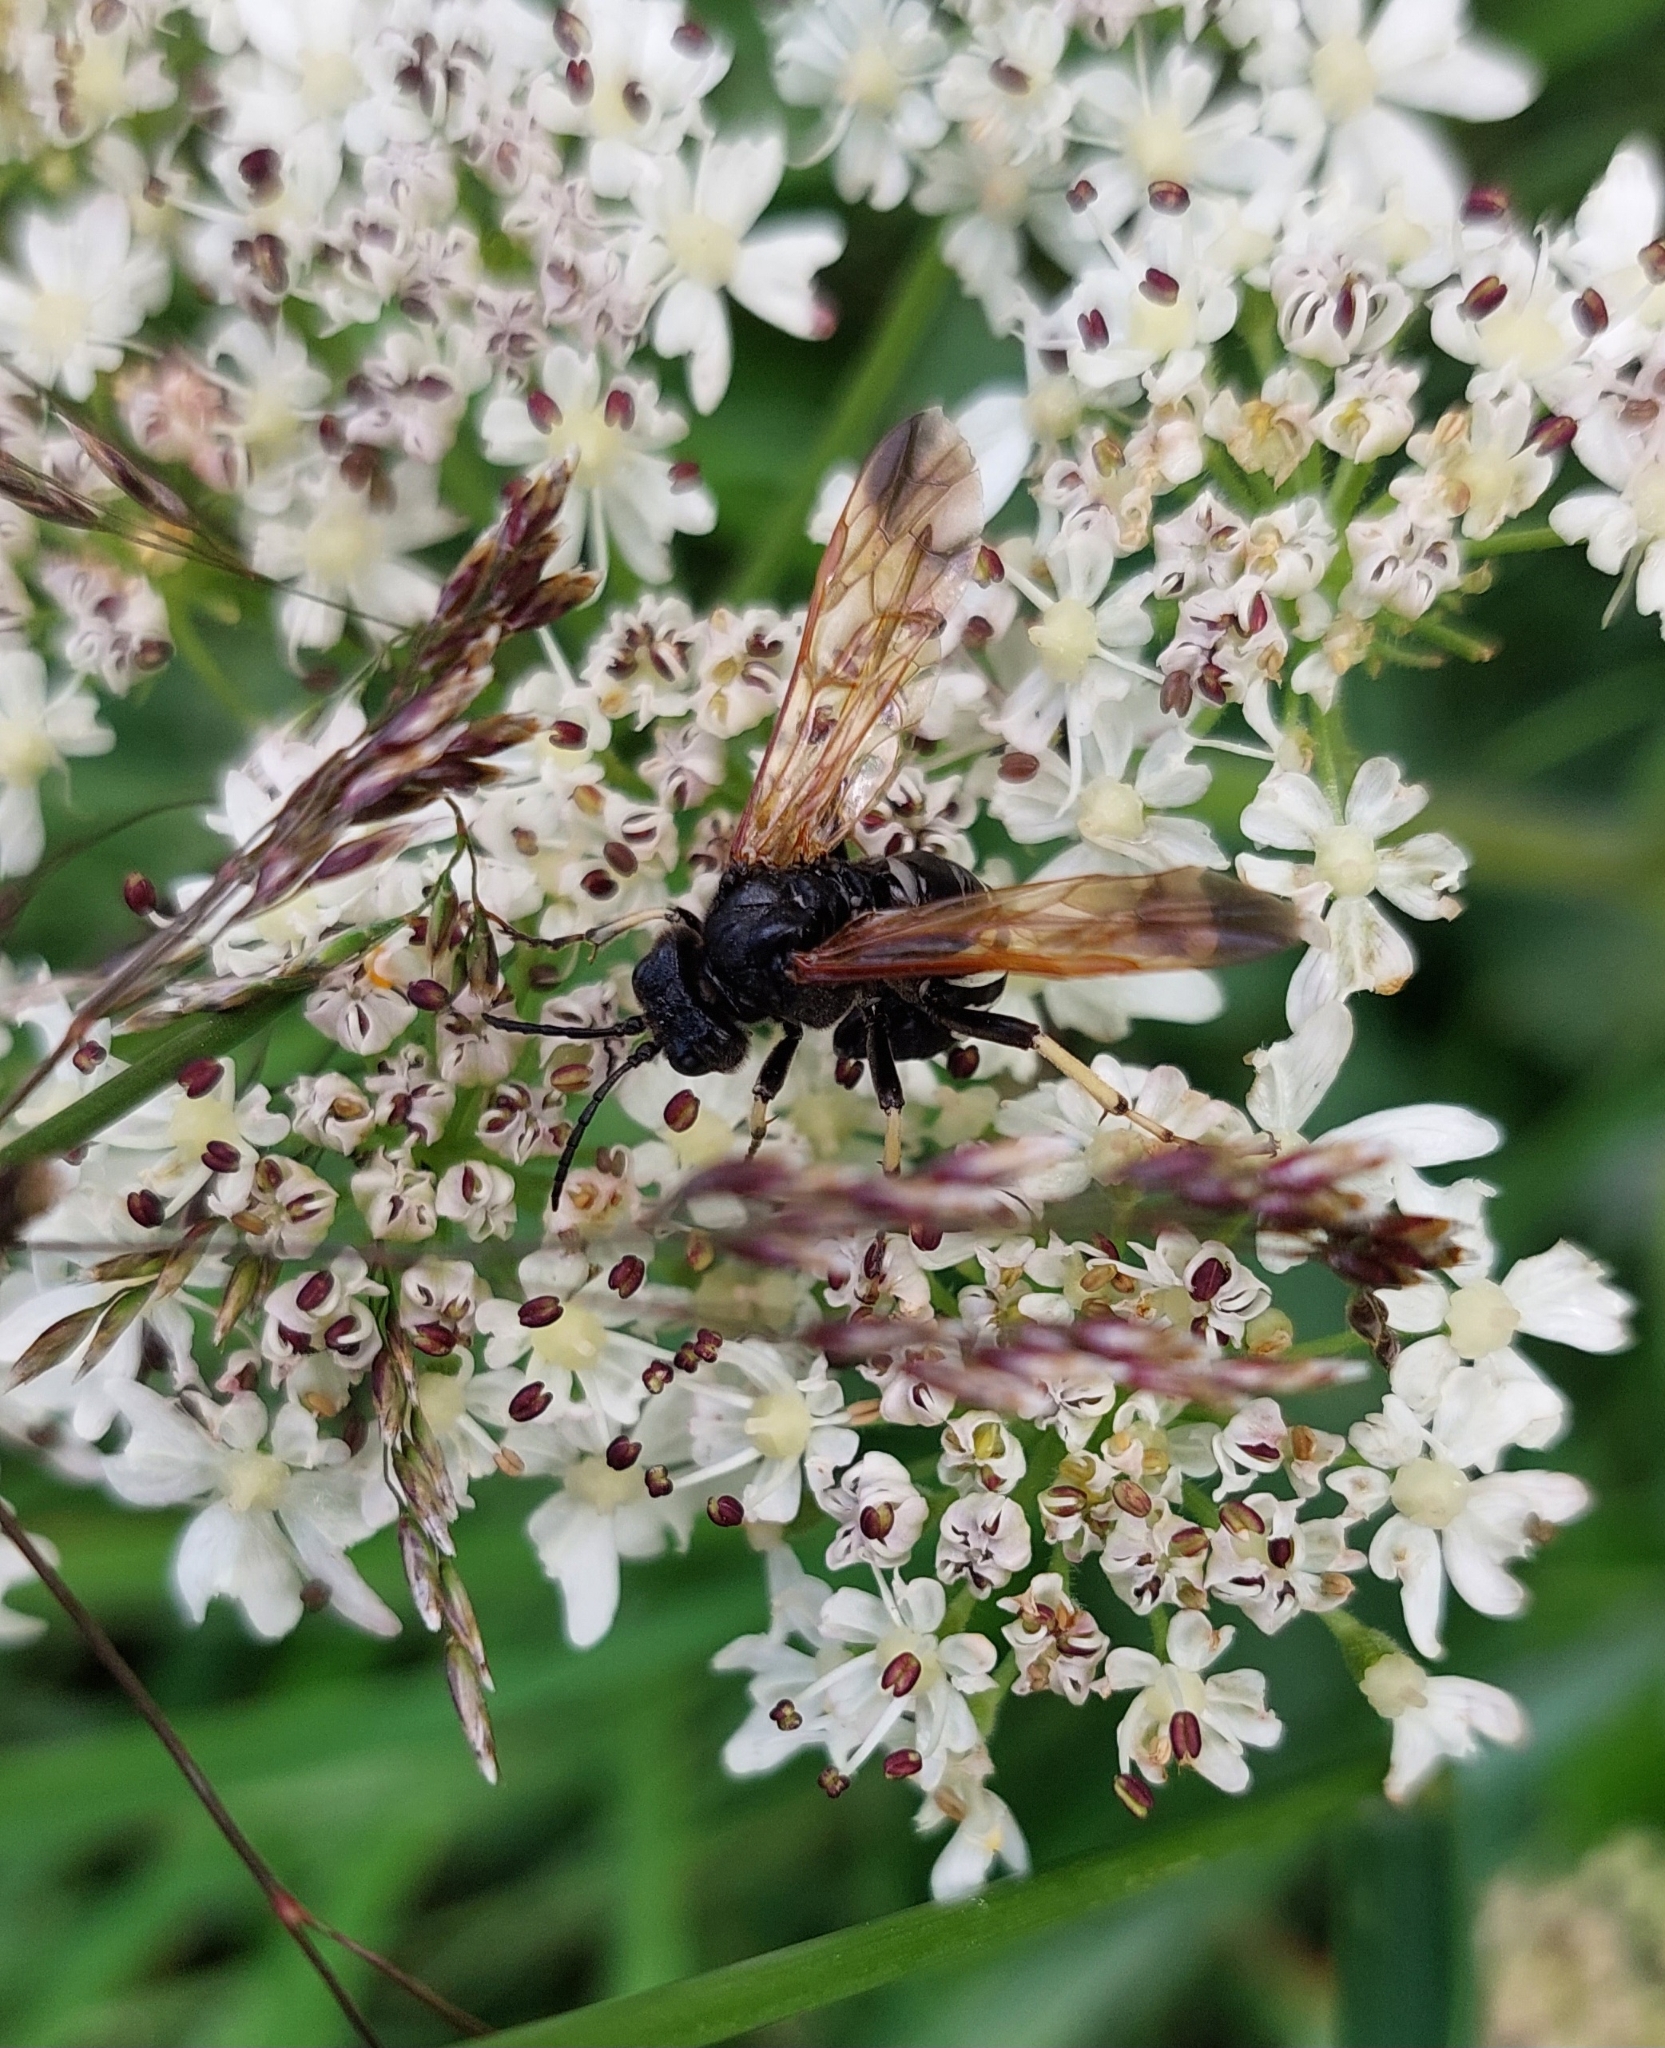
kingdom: Animalia
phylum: Arthropoda
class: Insecta
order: Hymenoptera
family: Tenthredinidae
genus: Tenthredo
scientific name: Tenthredo segmentaria
